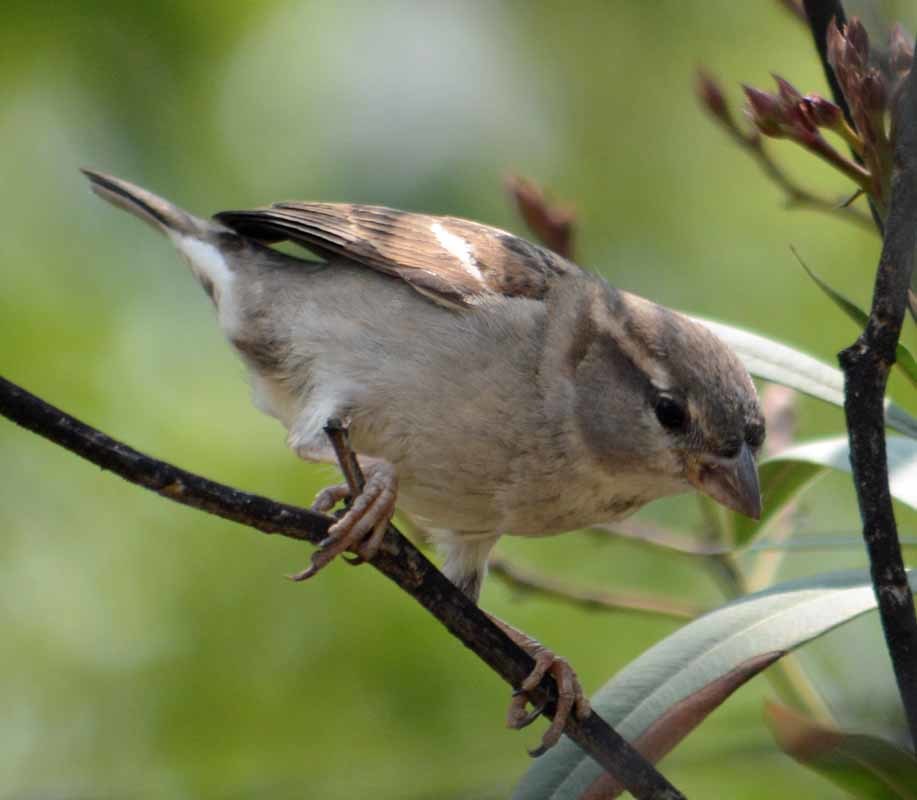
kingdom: Animalia
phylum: Chordata
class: Aves
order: Passeriformes
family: Passeridae
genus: Passer
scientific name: Passer domesticus
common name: House sparrow
